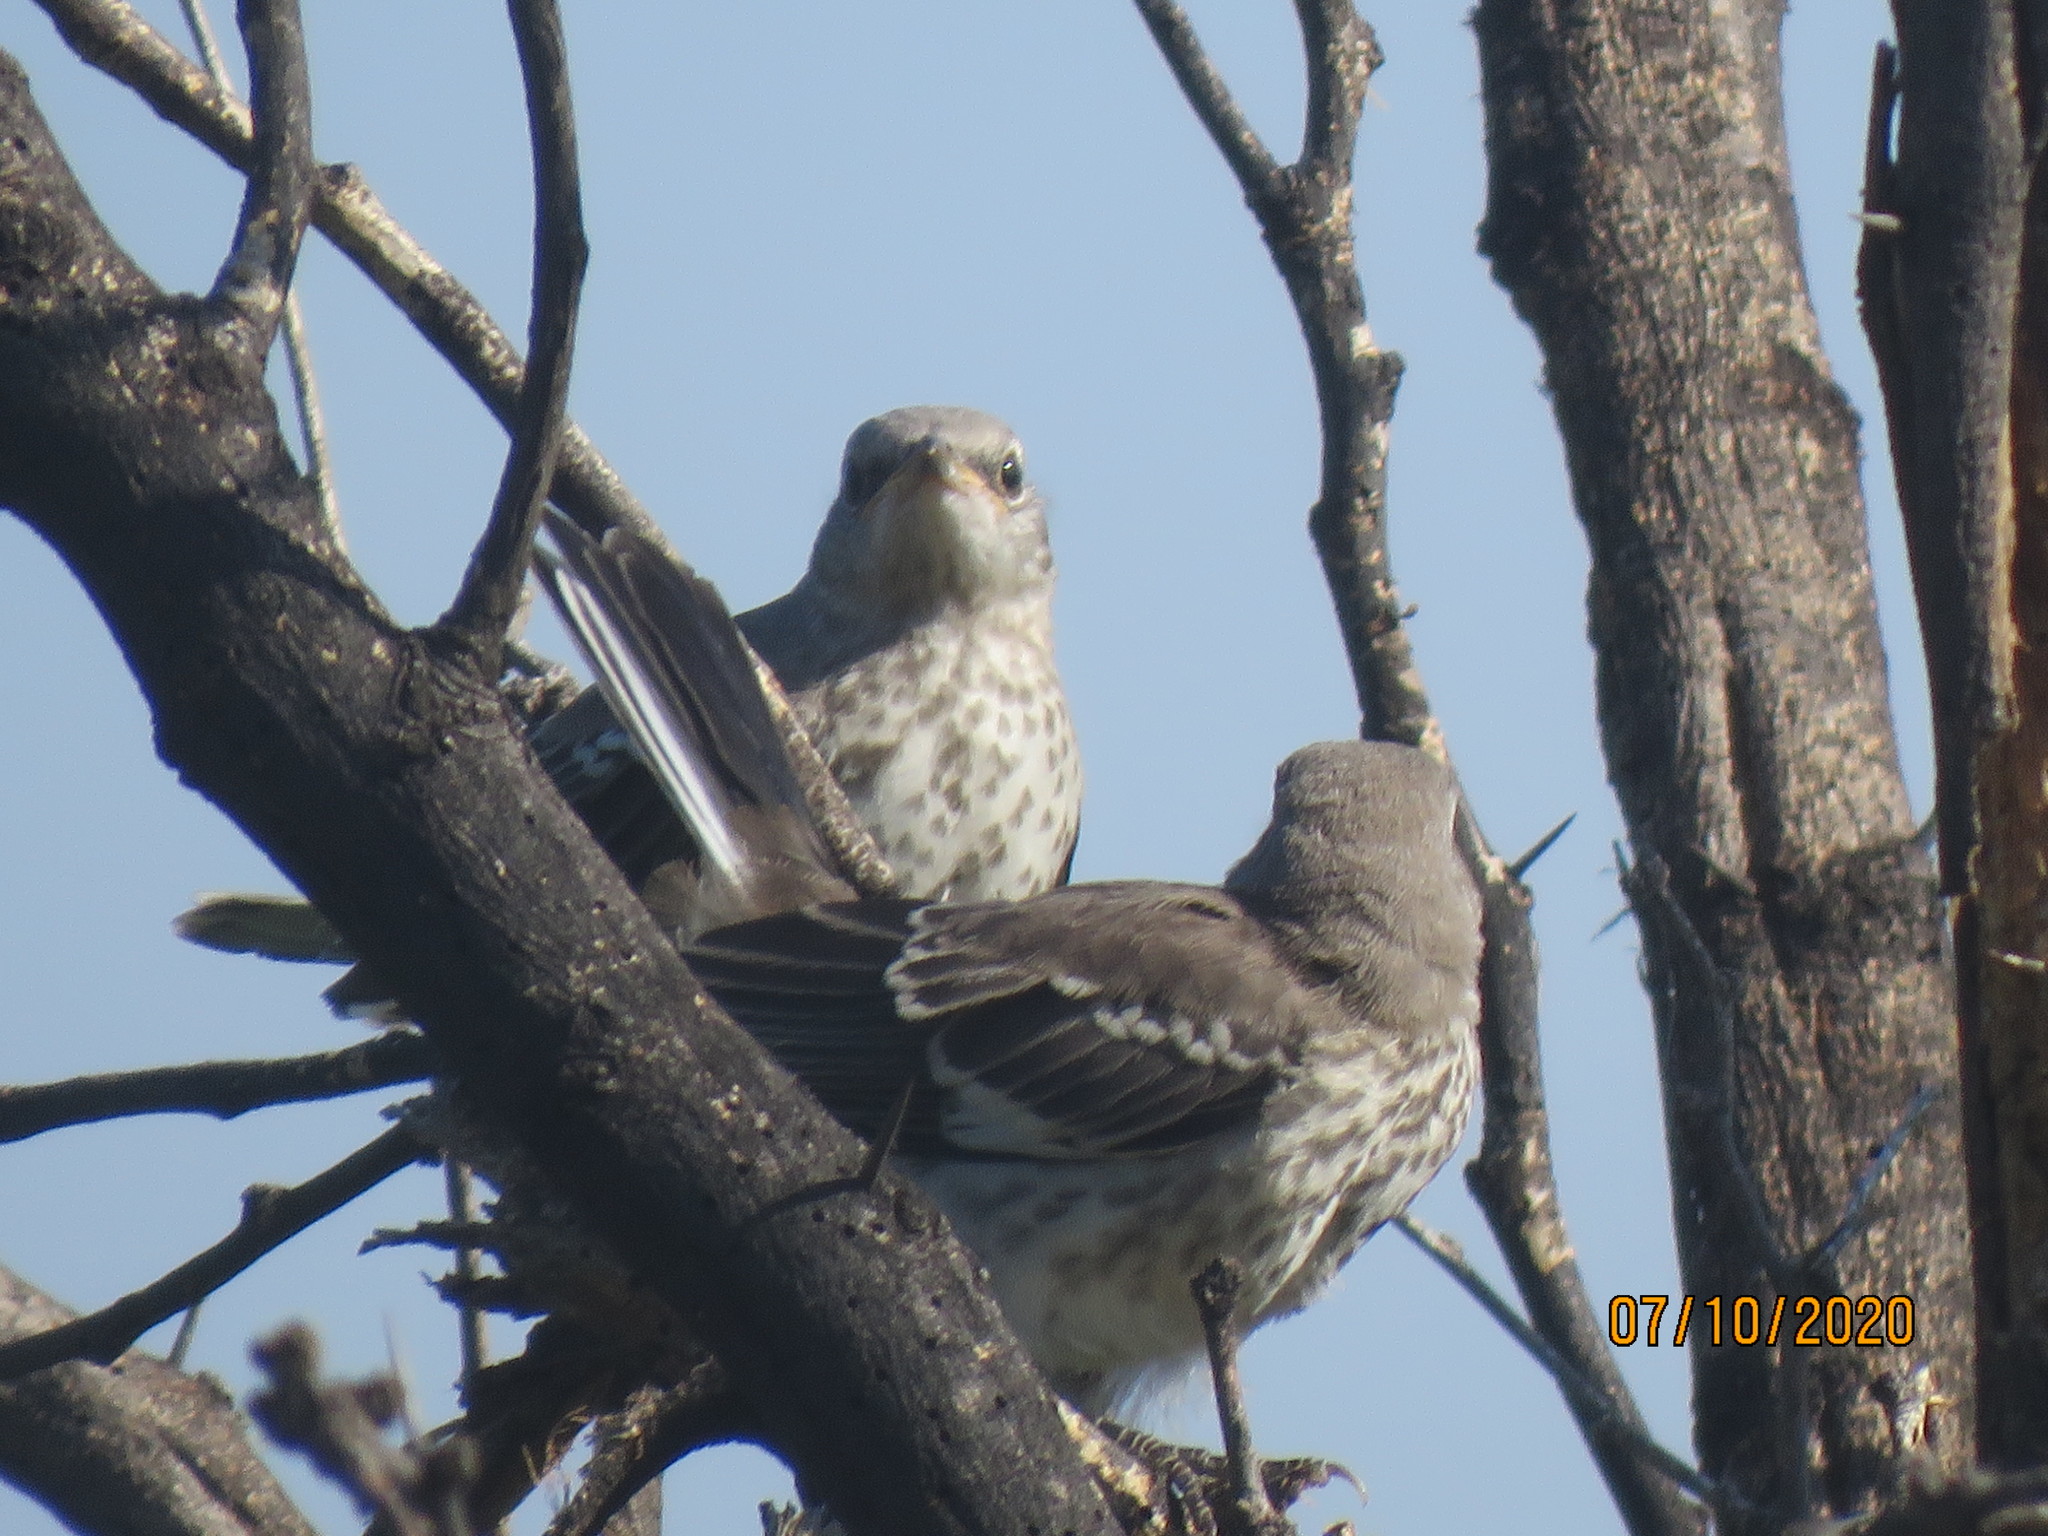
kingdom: Animalia
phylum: Chordata
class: Aves
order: Passeriformes
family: Mimidae
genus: Mimus
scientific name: Mimus polyglottos
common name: Northern mockingbird
